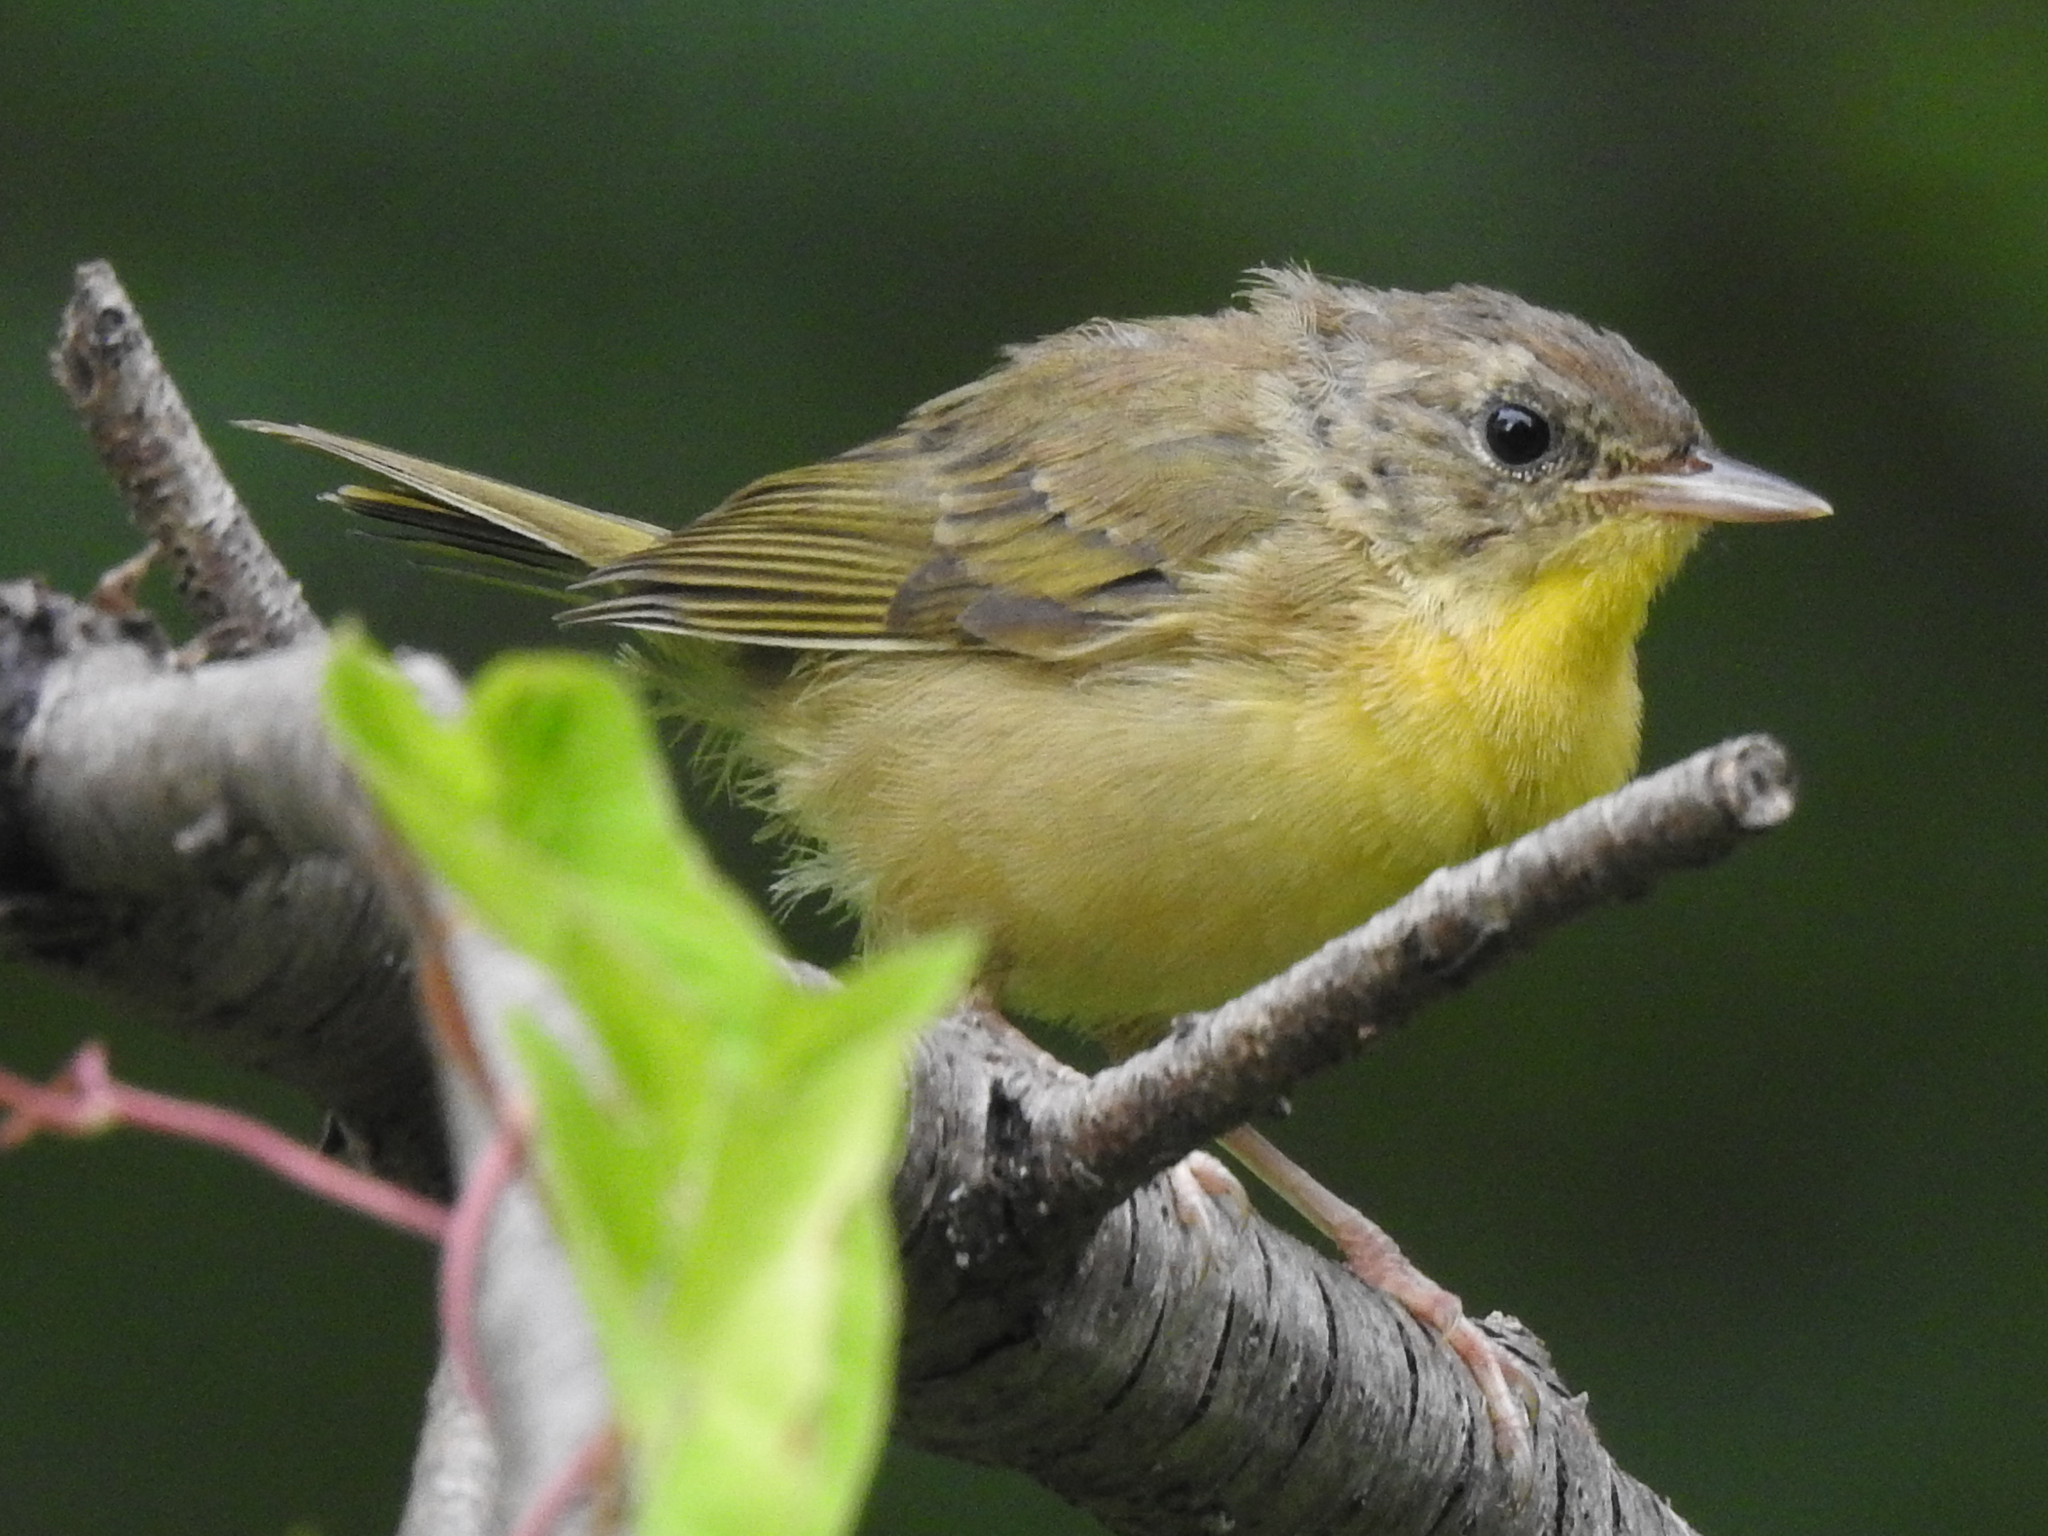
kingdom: Animalia
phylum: Chordata
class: Aves
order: Passeriformes
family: Parulidae
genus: Geothlypis
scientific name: Geothlypis trichas
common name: Common yellowthroat
